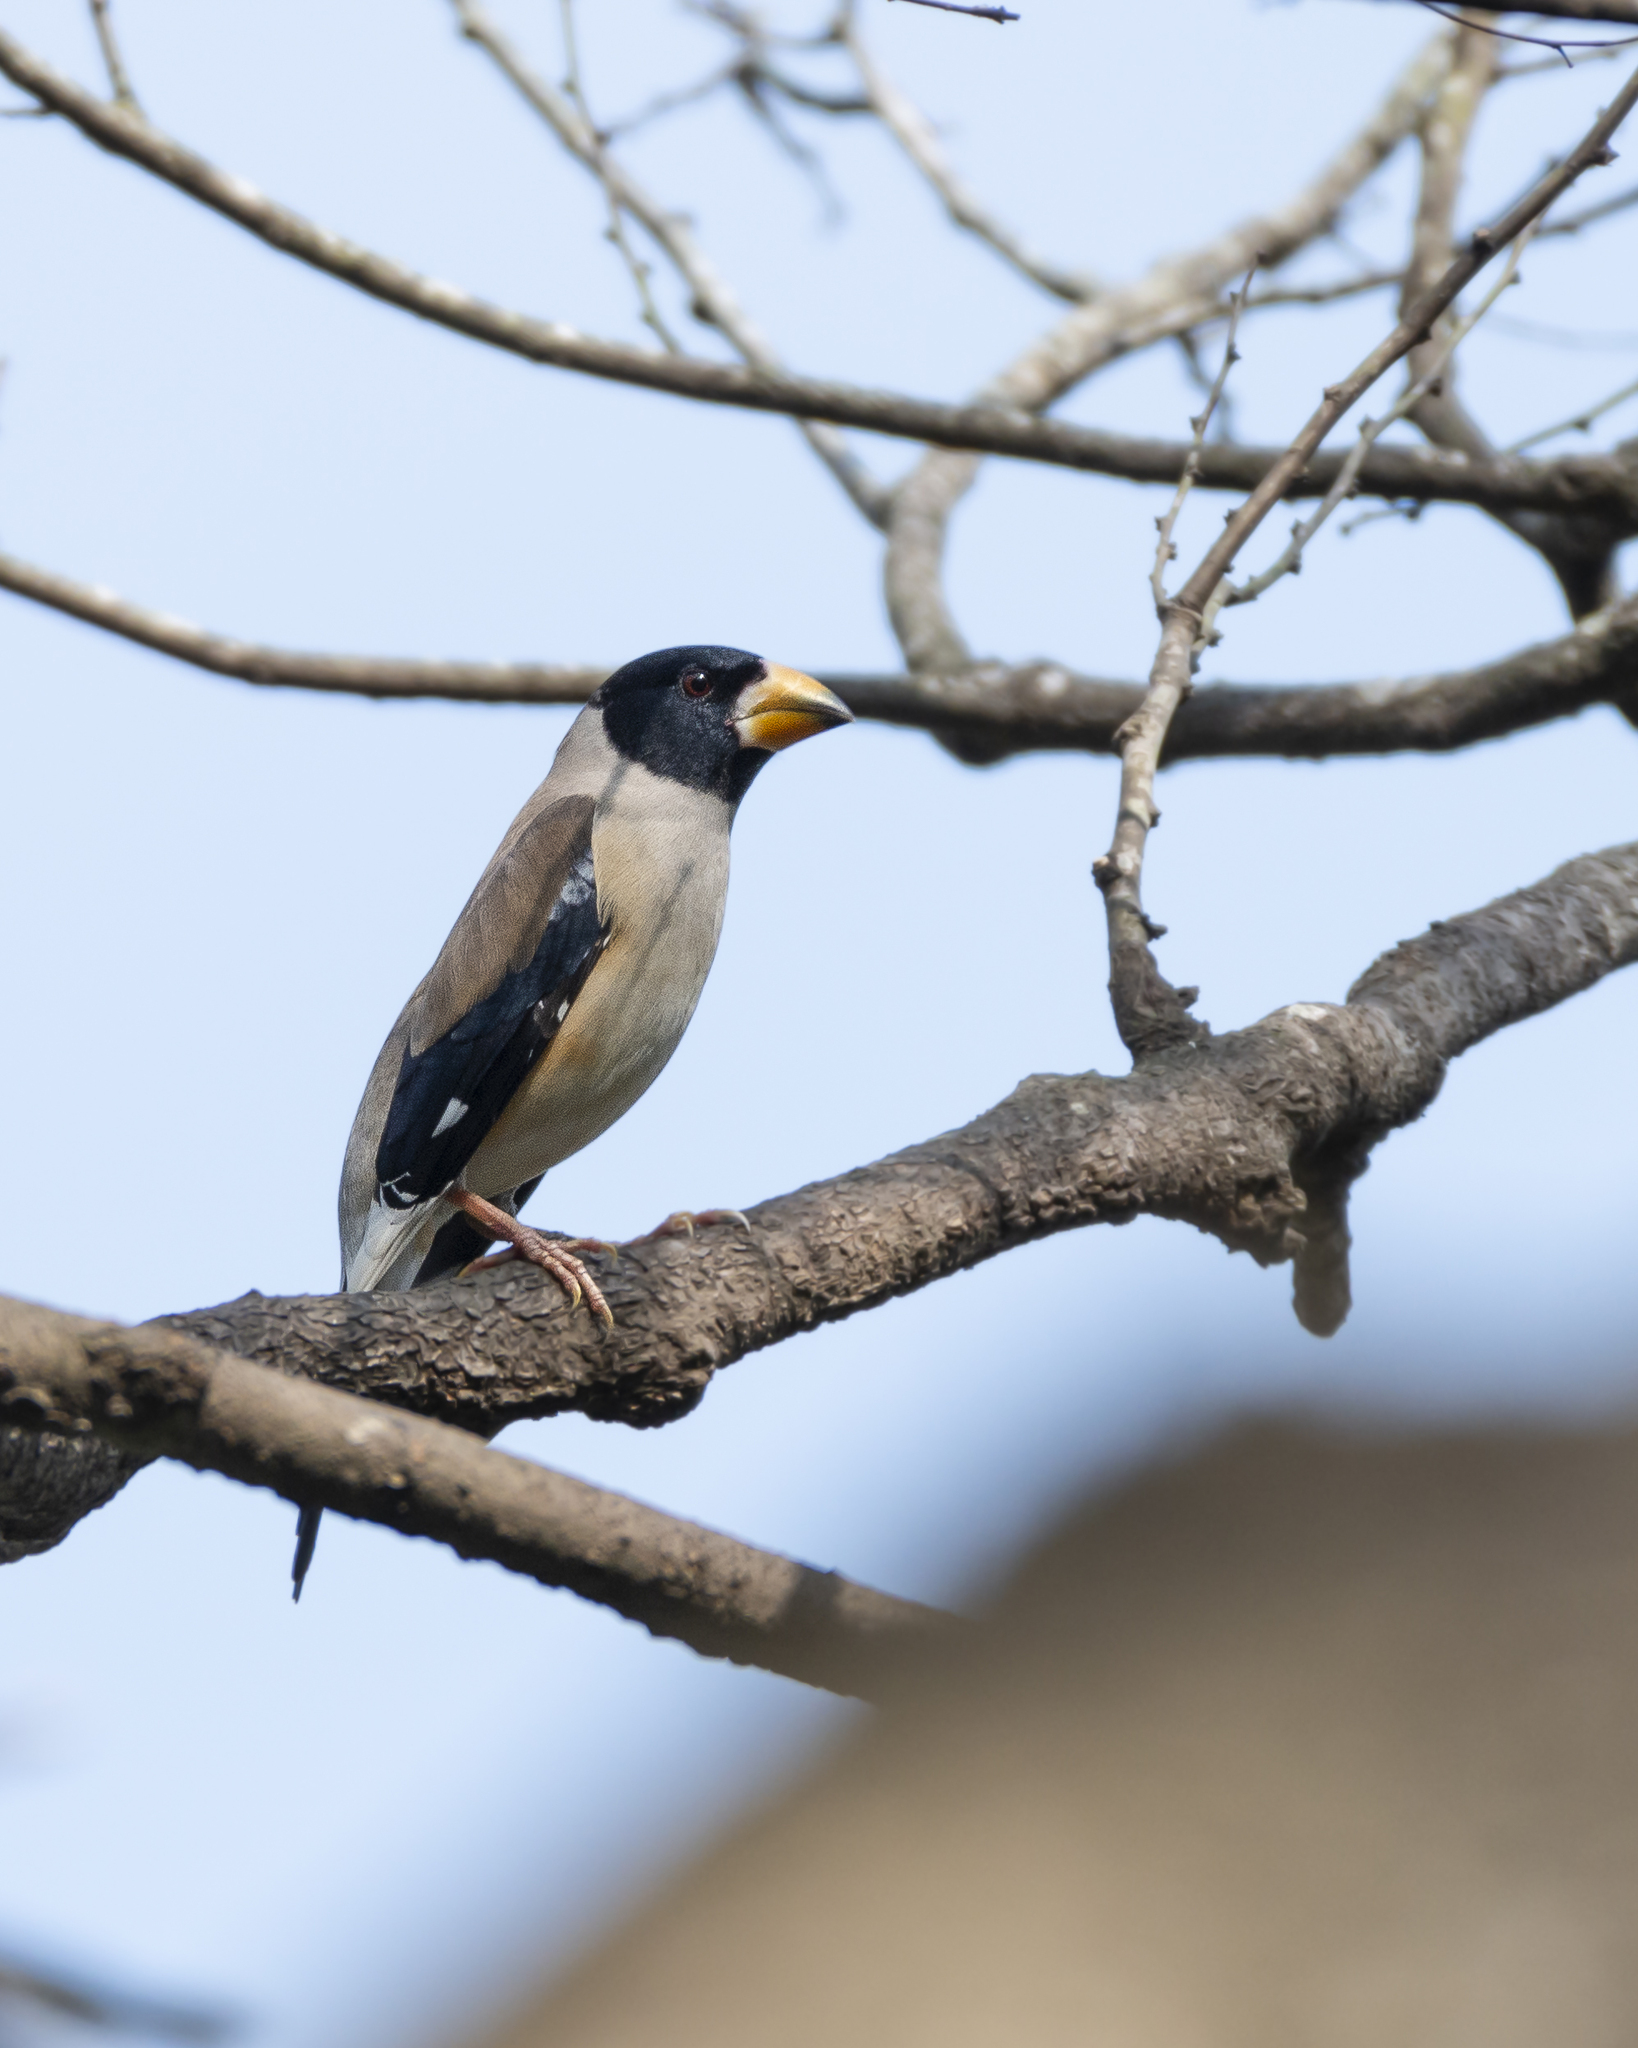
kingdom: Animalia
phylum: Chordata
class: Aves
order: Passeriformes
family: Fringillidae
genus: Eophona
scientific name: Eophona migratoria
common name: Yellow-billed grosbeak
